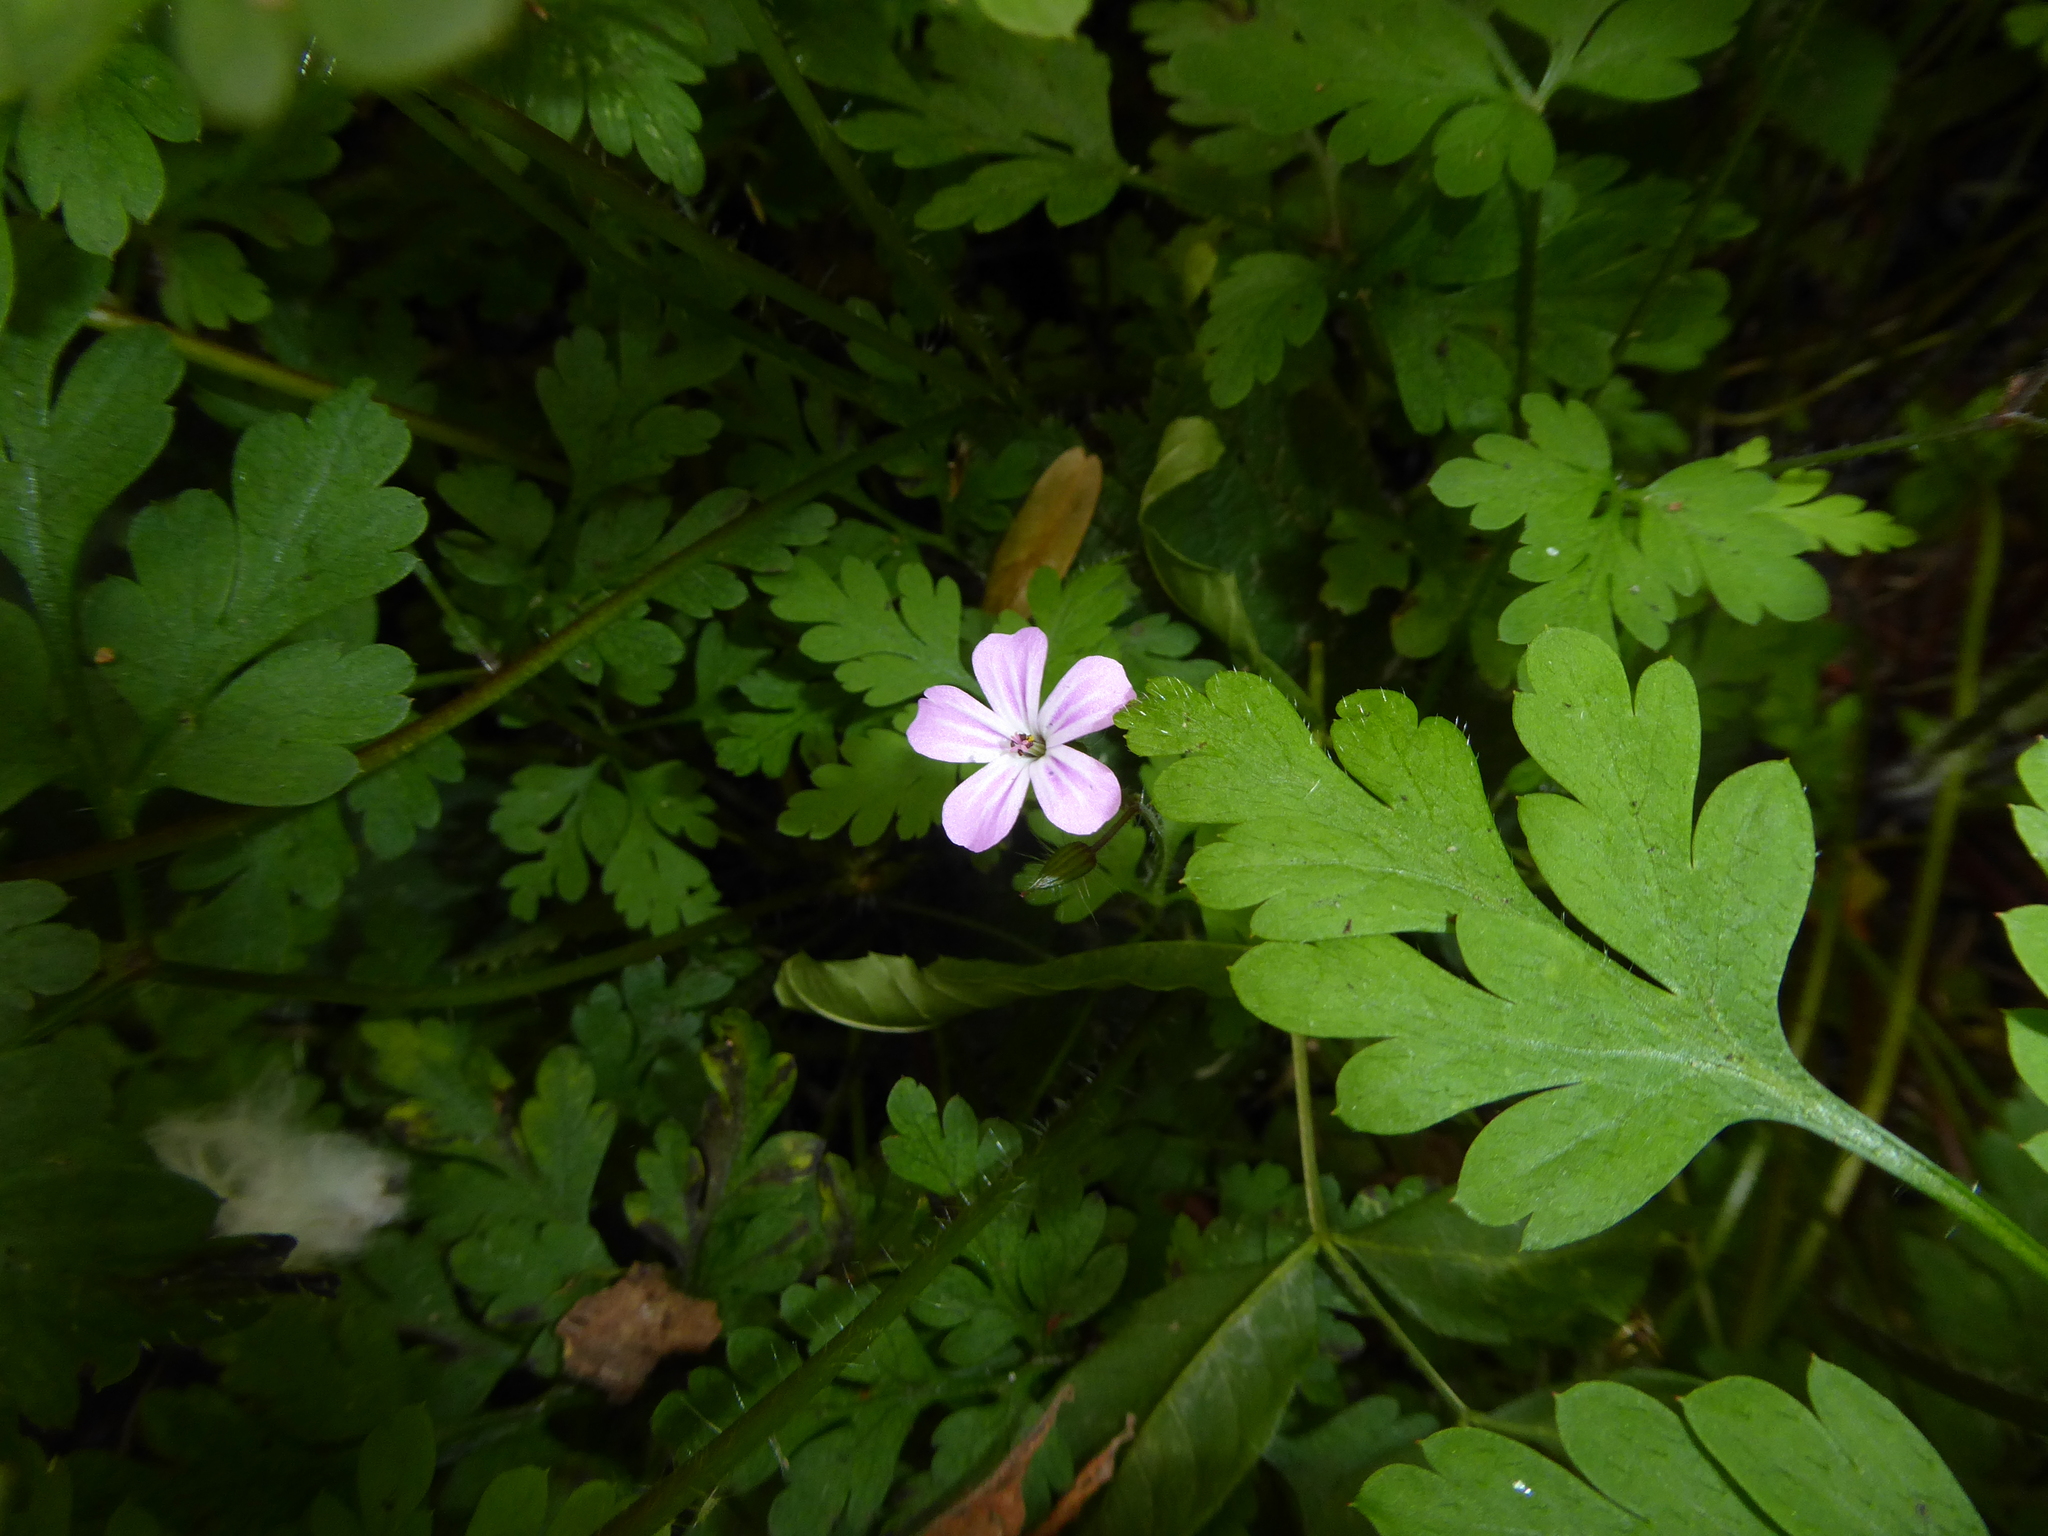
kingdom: Plantae
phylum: Tracheophyta
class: Magnoliopsida
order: Geraniales
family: Geraniaceae
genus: Geranium
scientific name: Geranium robertianum
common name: Herb-robert
